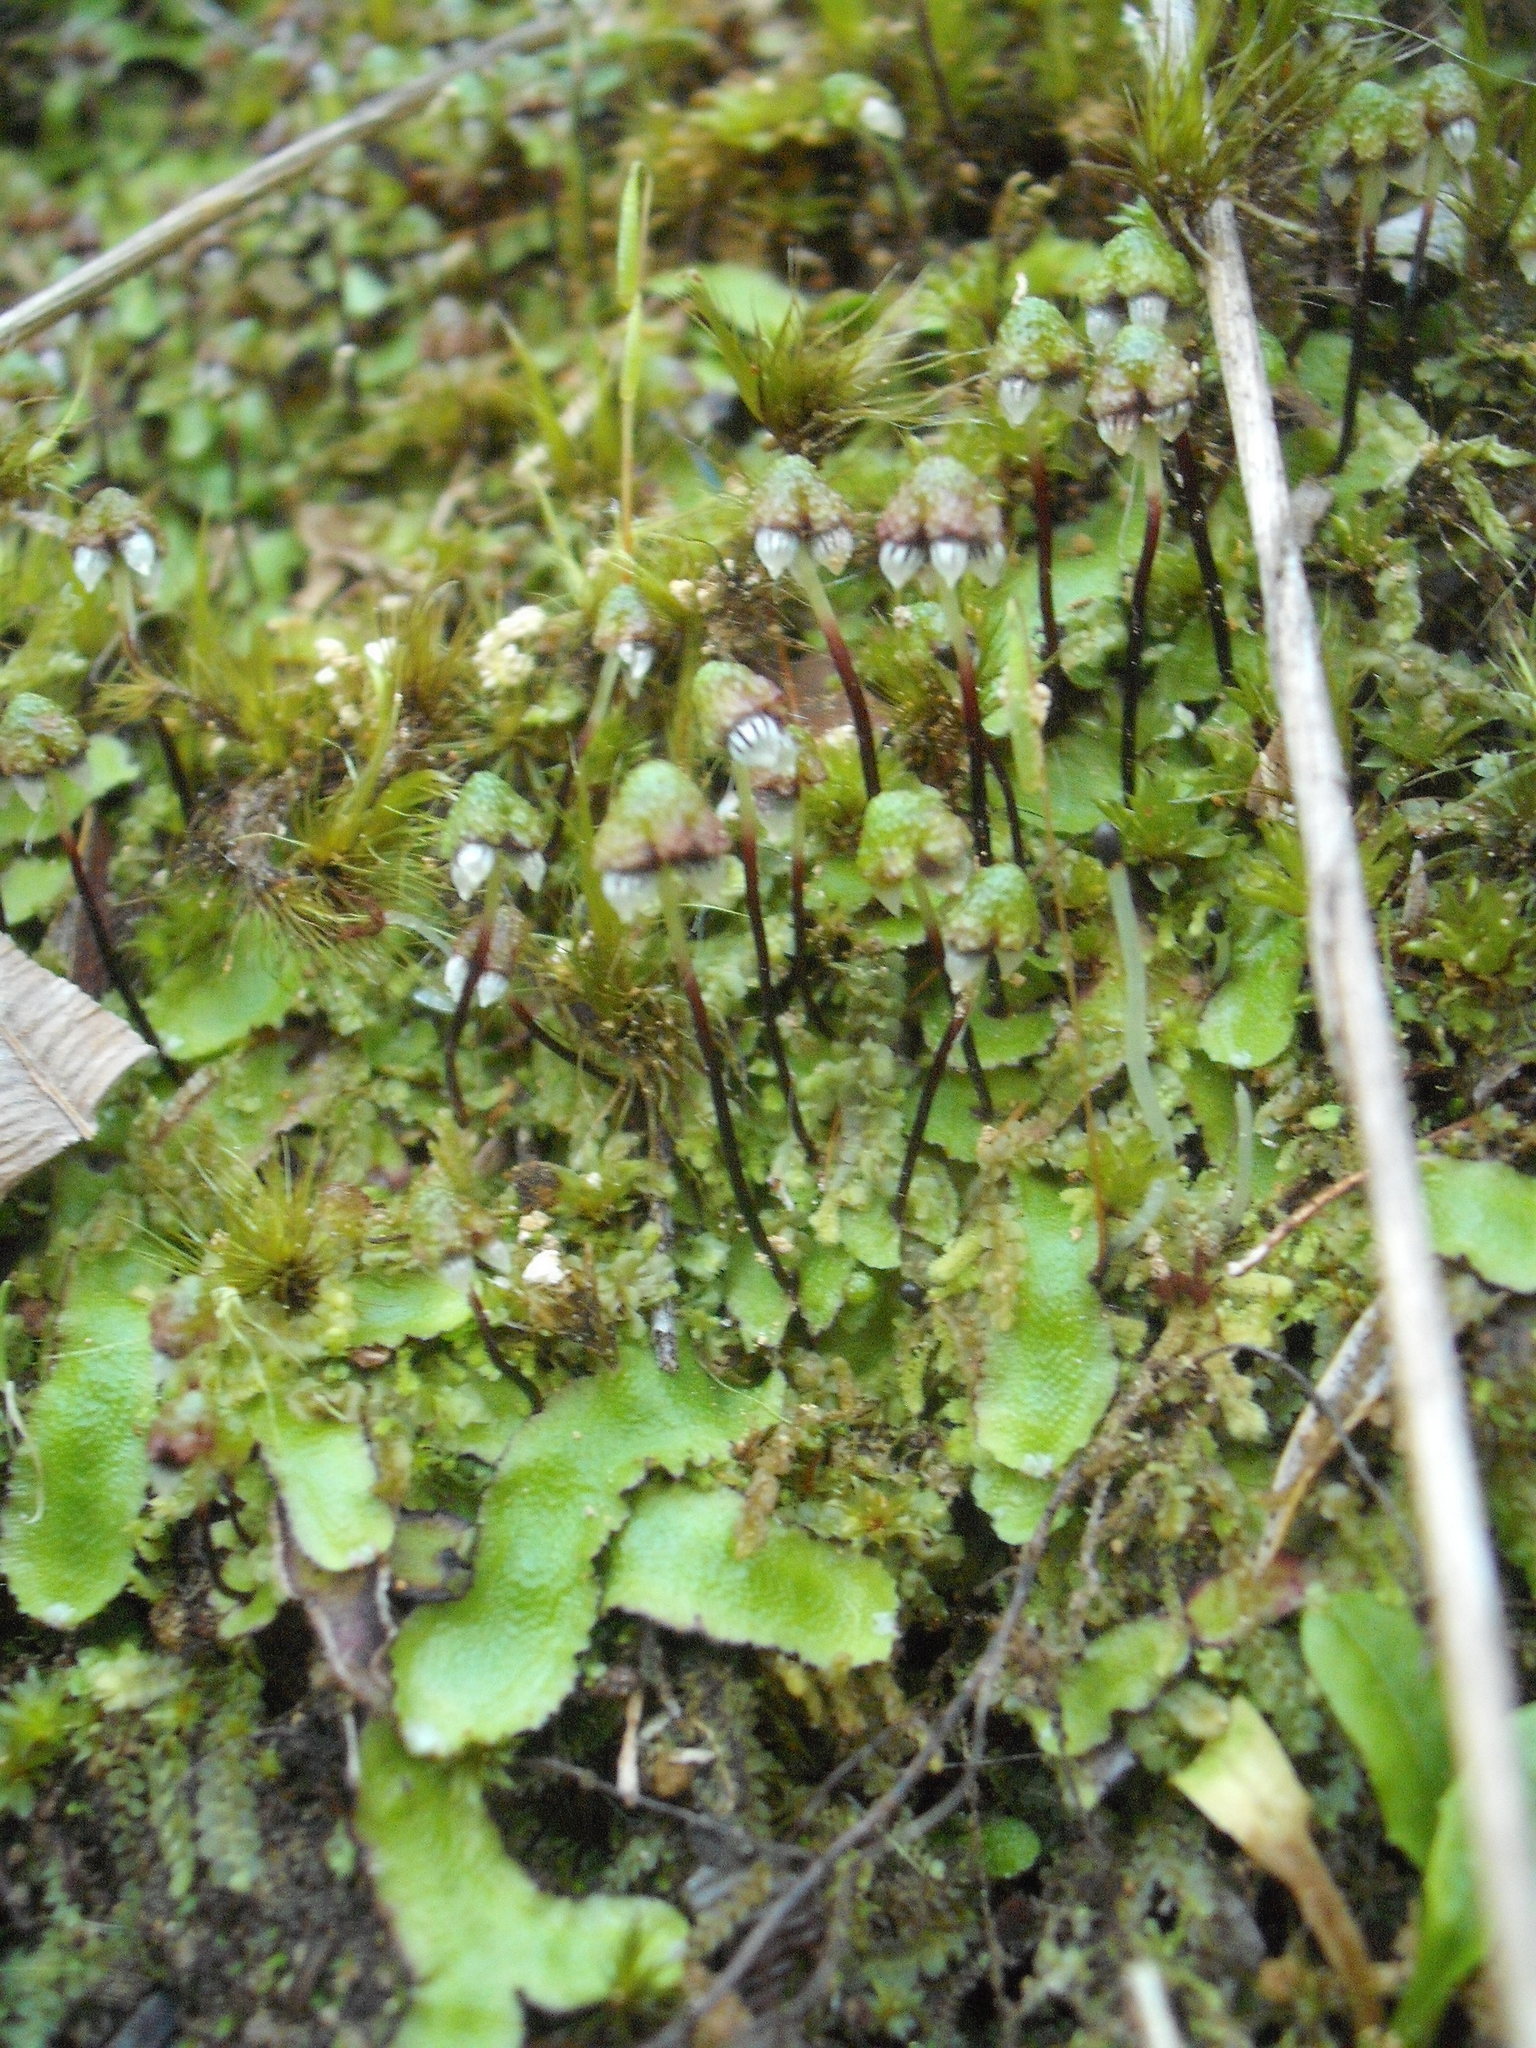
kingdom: Plantae
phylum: Marchantiophyta
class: Marchantiopsida
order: Marchantiales
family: Aytoniaceae
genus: Asterella
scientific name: Asterella australis
